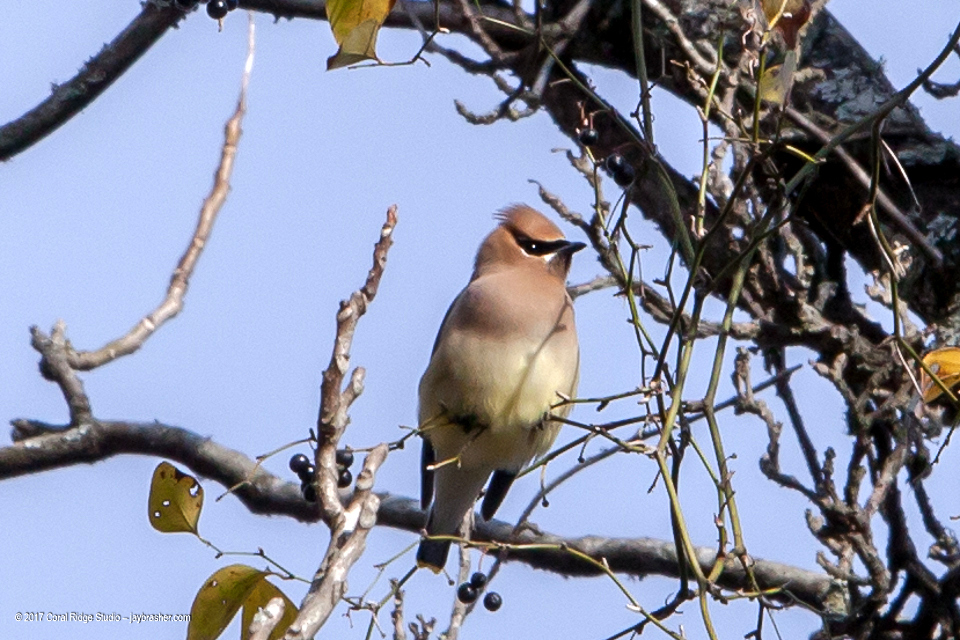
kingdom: Animalia
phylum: Chordata
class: Aves
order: Passeriformes
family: Bombycillidae
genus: Bombycilla
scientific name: Bombycilla cedrorum
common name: Cedar waxwing
